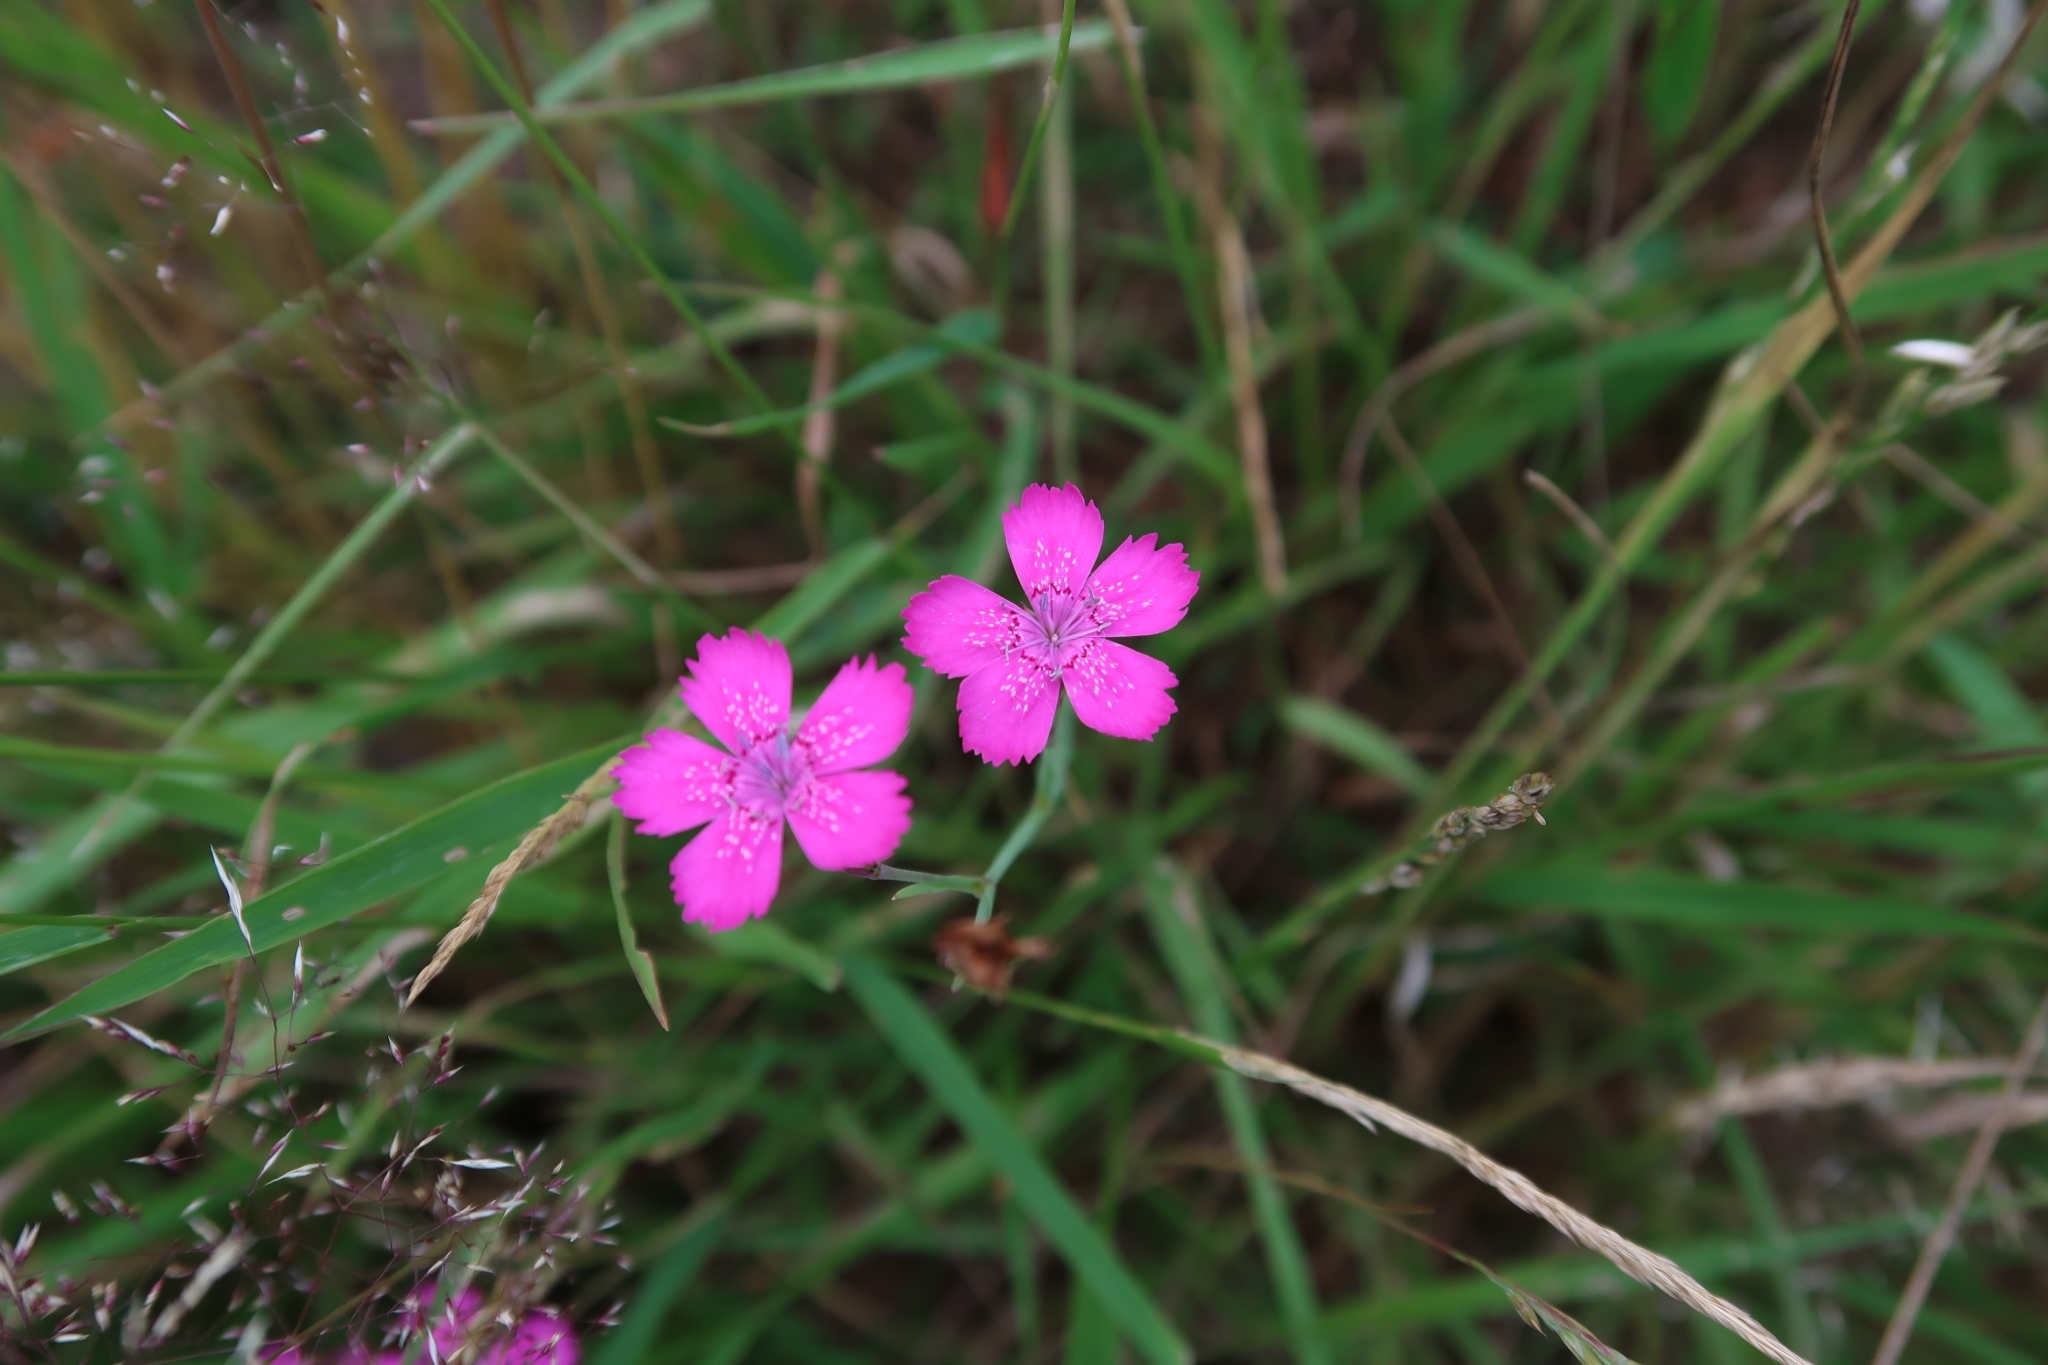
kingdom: Plantae
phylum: Tracheophyta
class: Magnoliopsida
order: Caryophyllales
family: Caryophyllaceae
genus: Dianthus
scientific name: Dianthus deltoides
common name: Maiden pink
